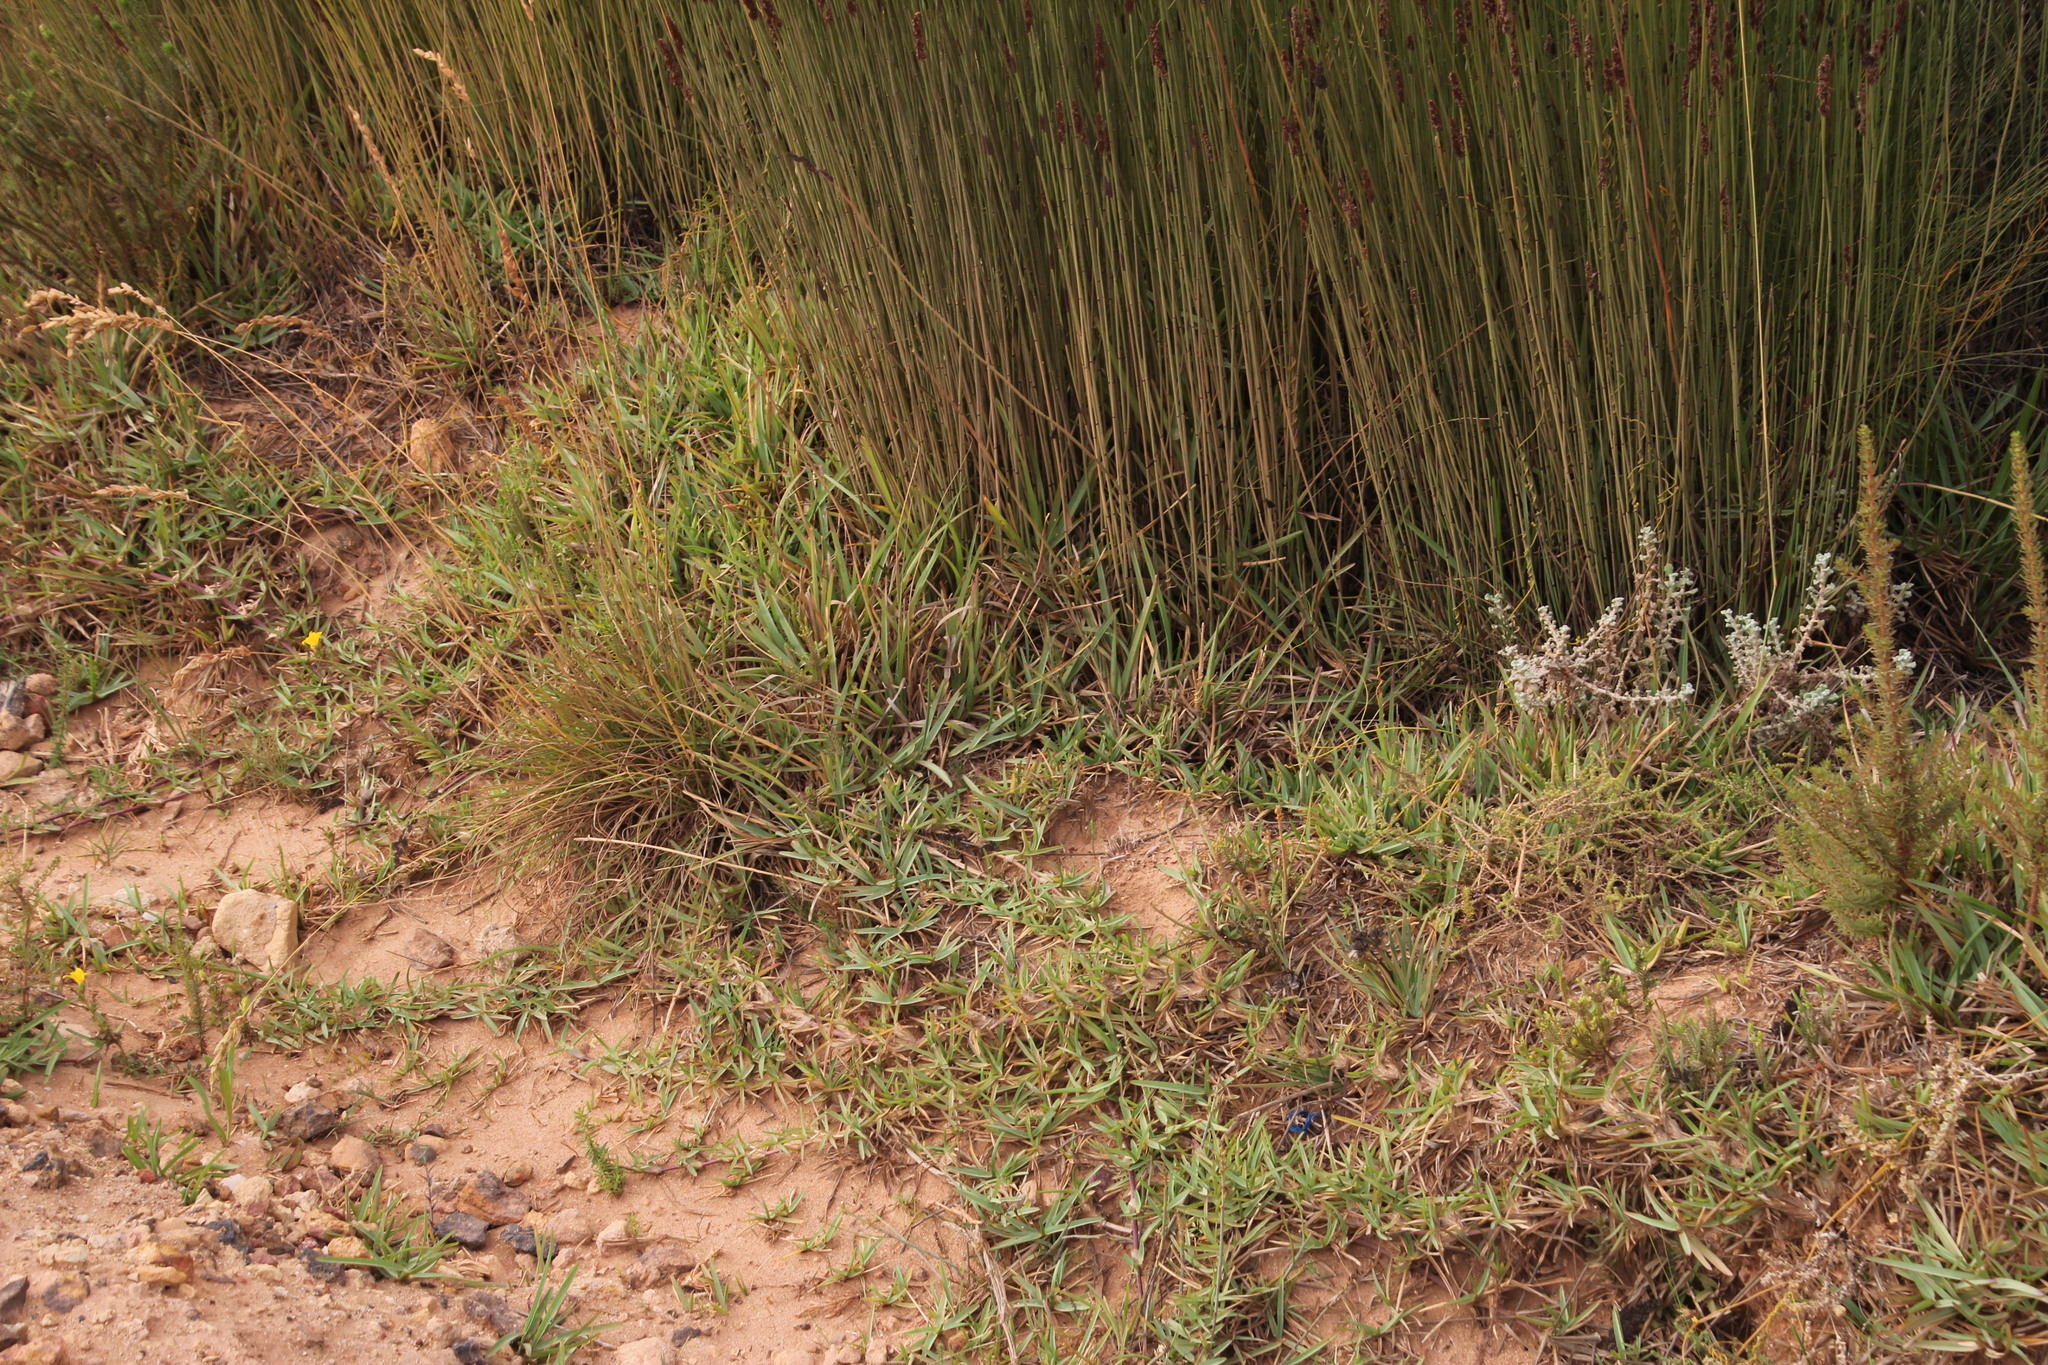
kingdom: Plantae
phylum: Tracheophyta
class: Liliopsida
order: Poales
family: Poaceae
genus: Stenotaphrum
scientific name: Stenotaphrum secundatum
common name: St. augustine grass
